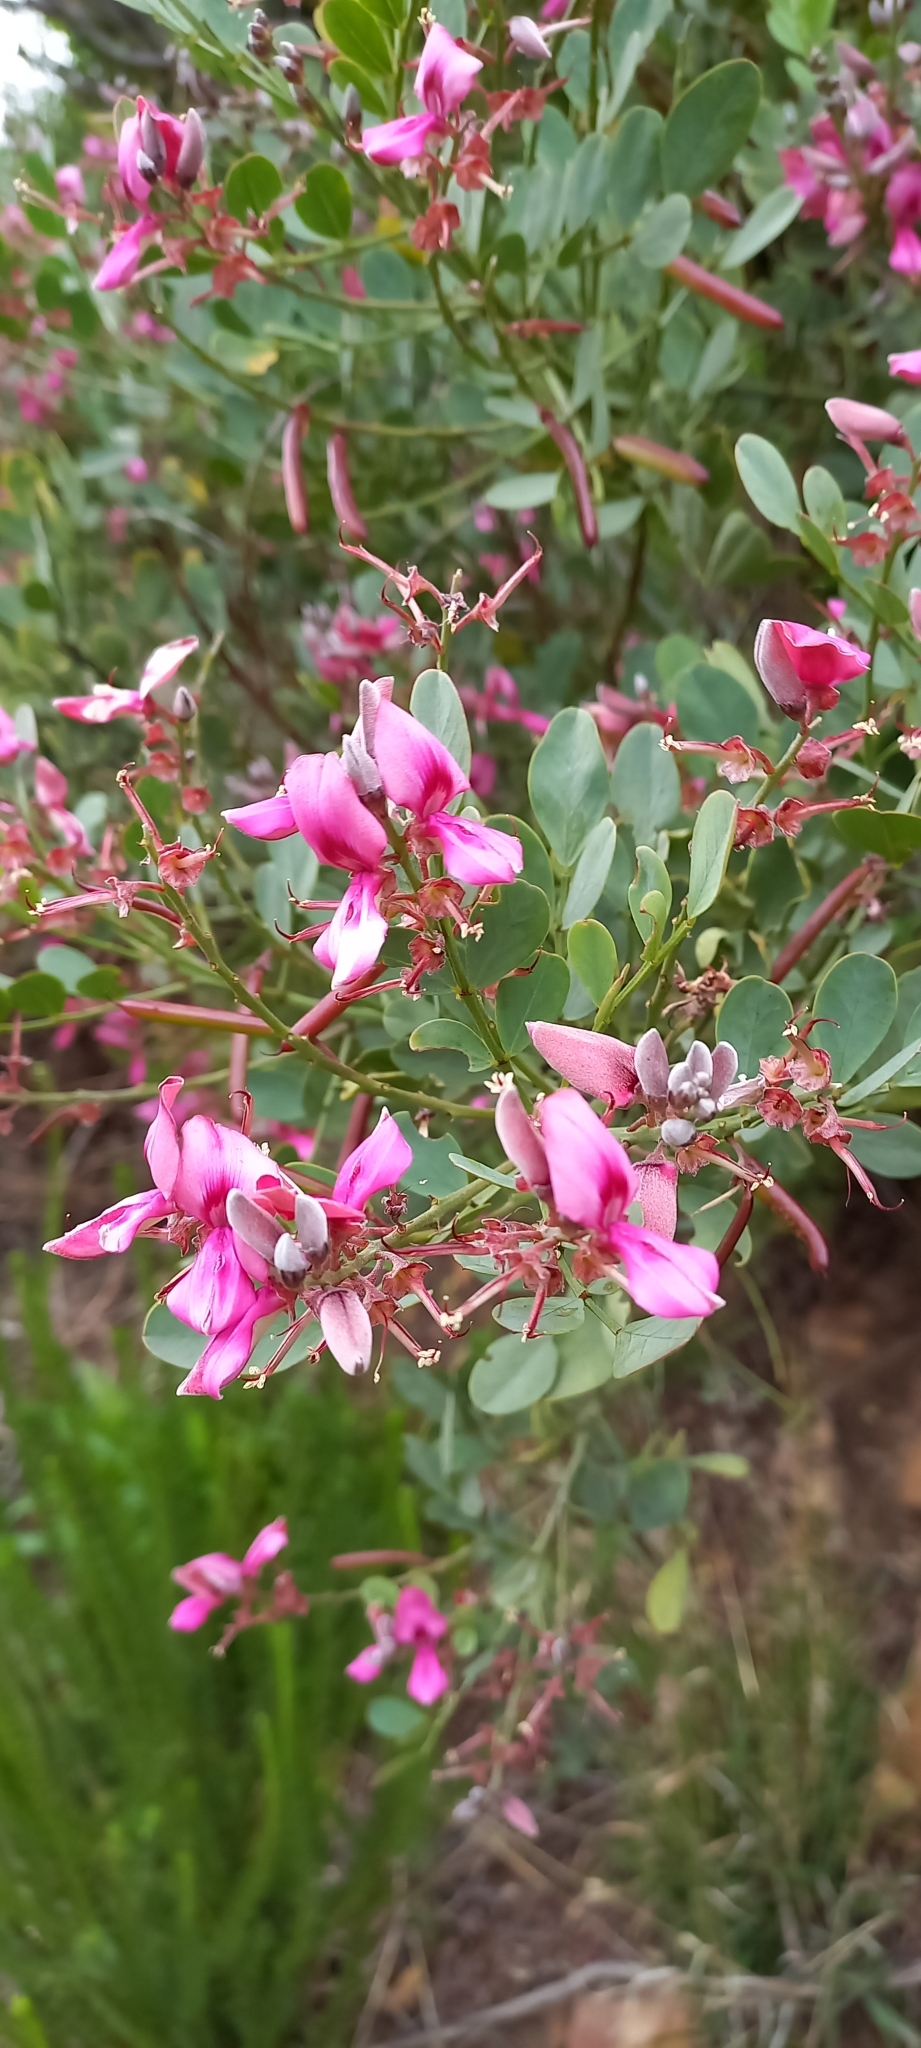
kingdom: Plantae
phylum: Tracheophyta
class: Magnoliopsida
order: Fabales
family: Fabaceae
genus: Indigofera
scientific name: Indigofera frutescens
